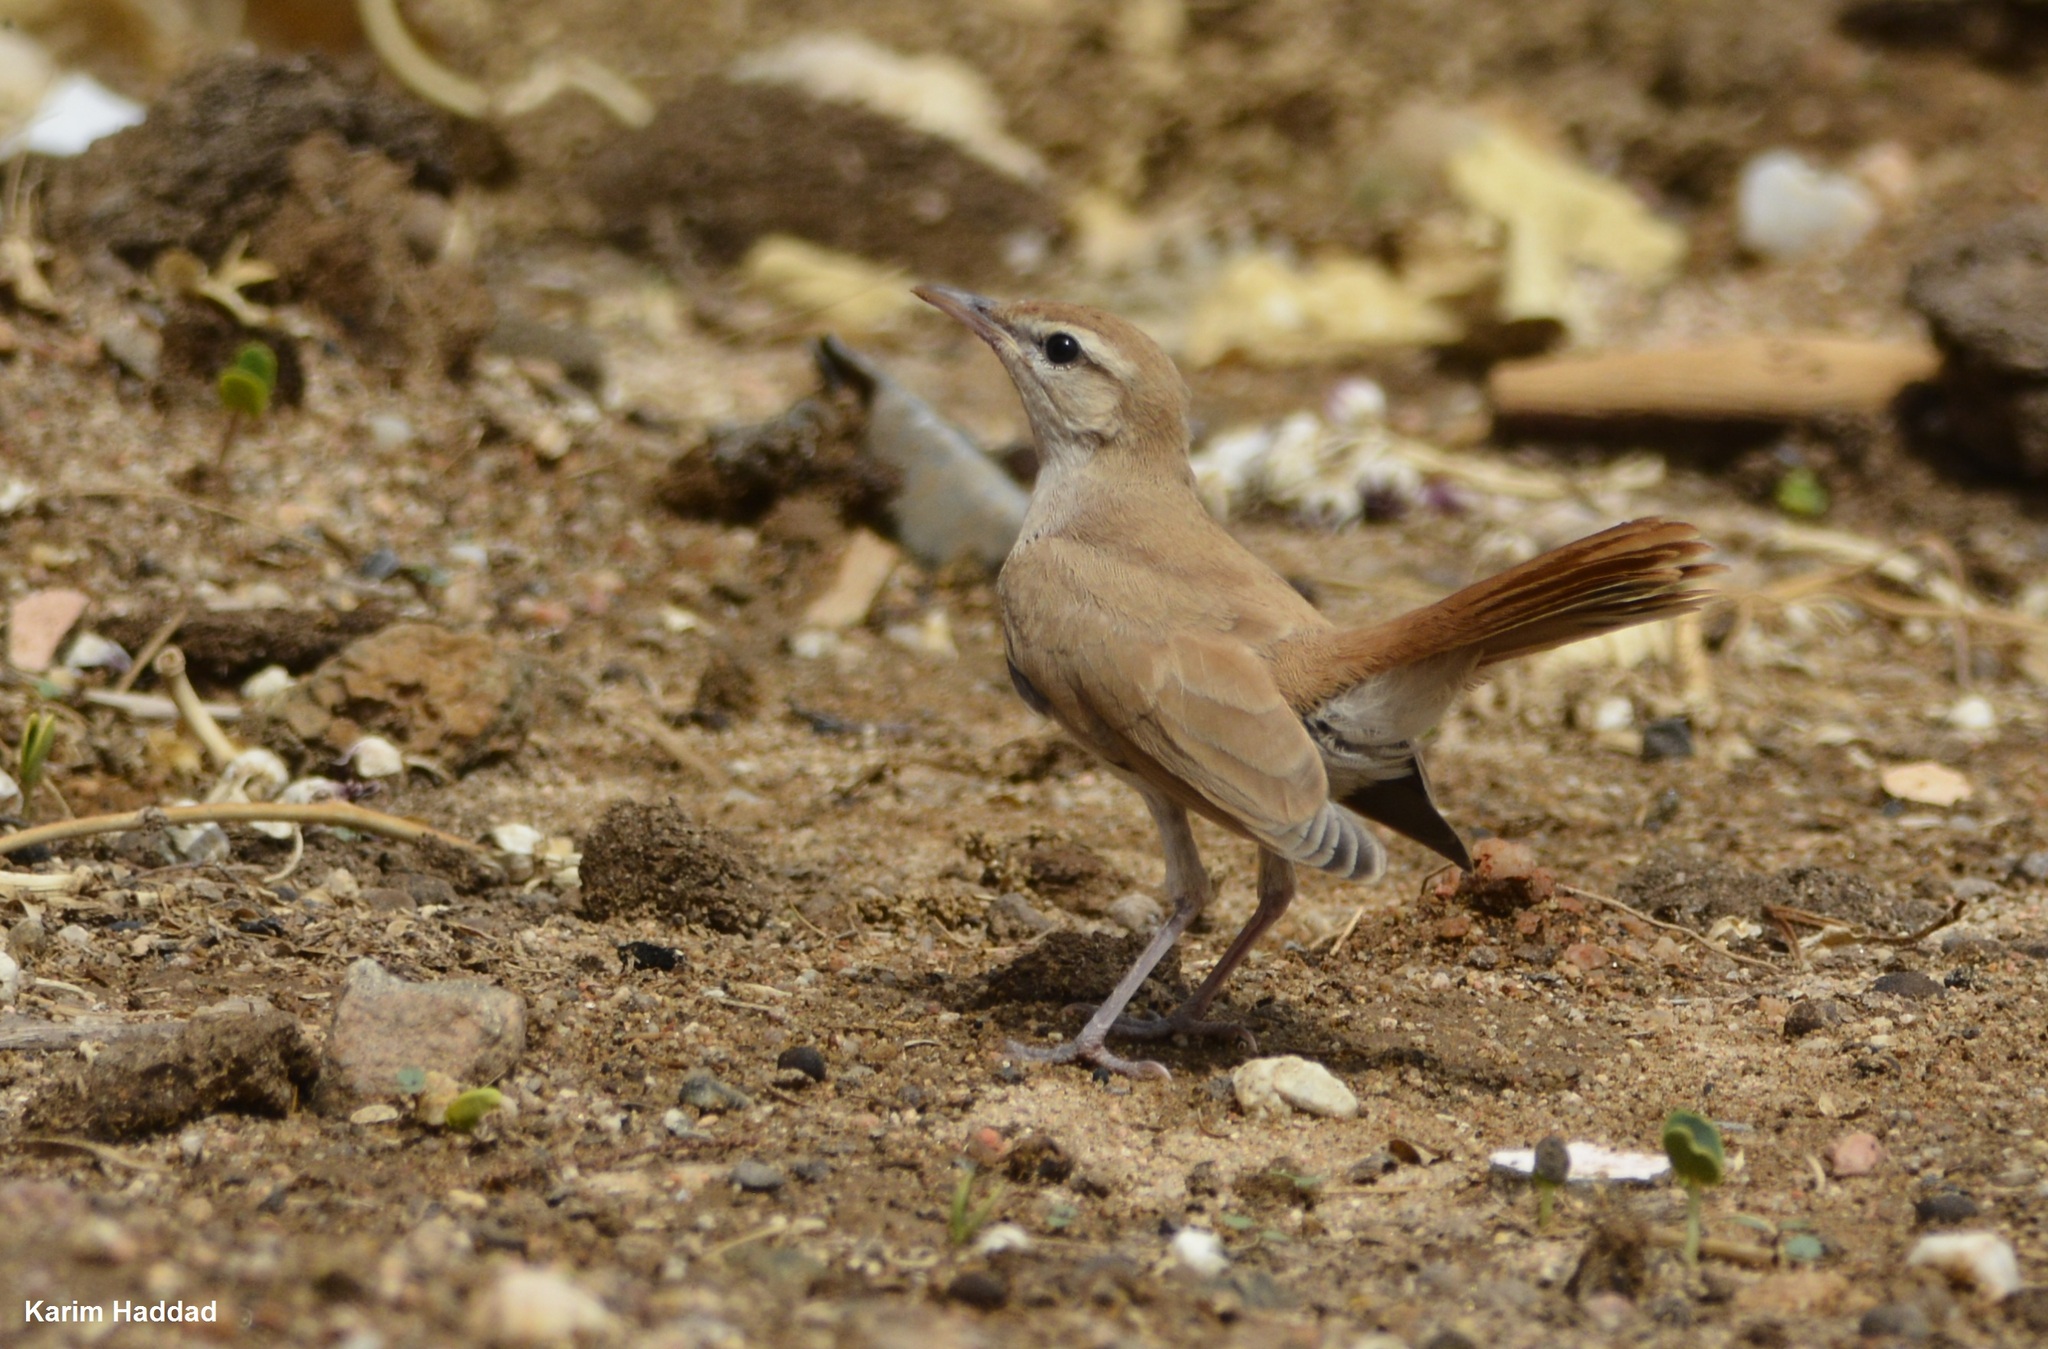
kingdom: Animalia
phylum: Chordata
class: Aves
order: Passeriformes
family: Muscicapidae
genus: Erythropygia
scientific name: Erythropygia galactotes
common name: Rufous-tailed scrub robin
